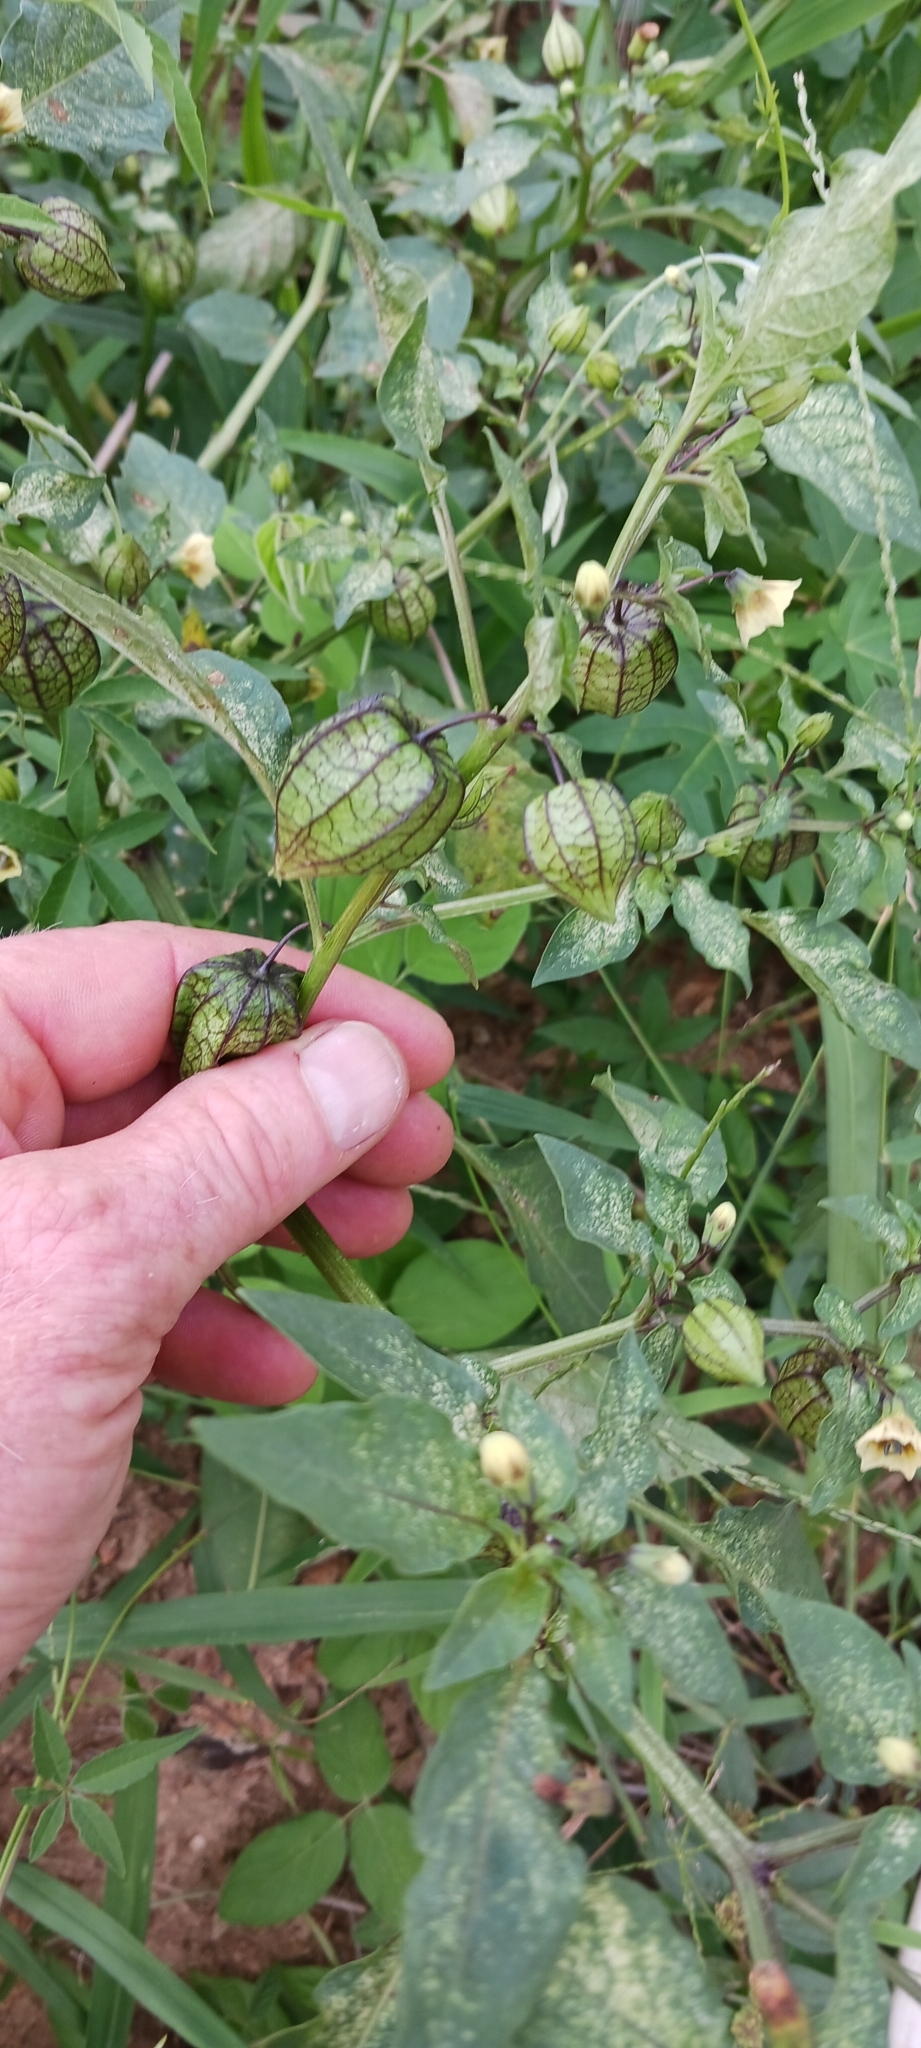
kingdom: Plantae
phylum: Tracheophyta
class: Magnoliopsida
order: Solanales
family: Solanaceae
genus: Physalis
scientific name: Physalis angulata
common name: Angular winter-cherry
